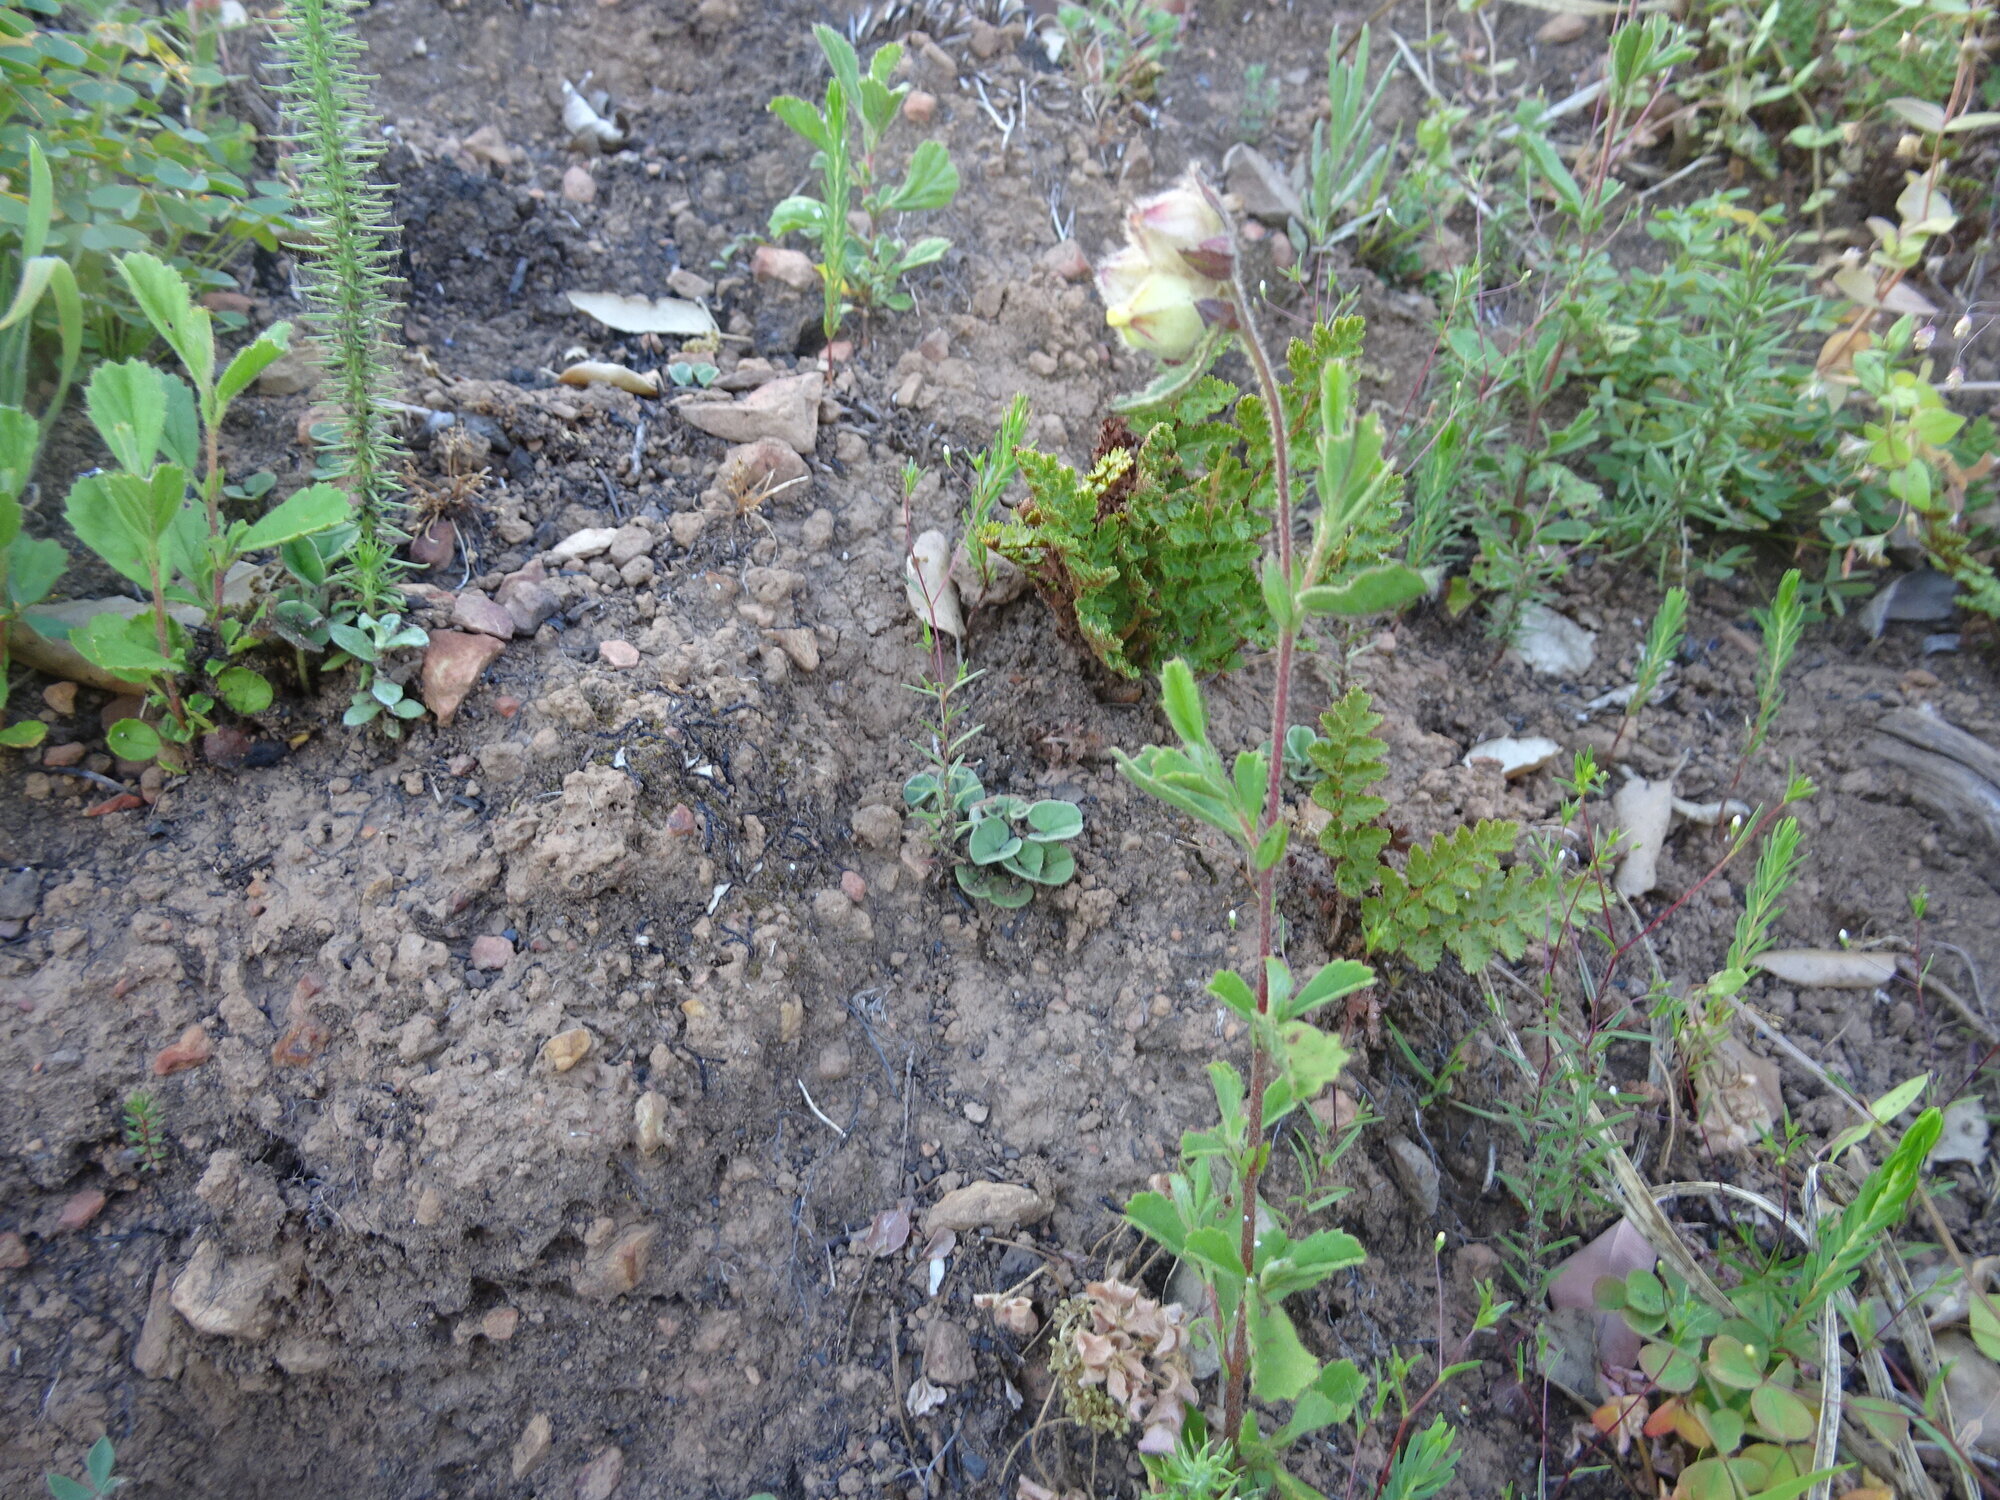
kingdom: Plantae
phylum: Tracheophyta
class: Magnoliopsida
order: Malvales
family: Malvaceae
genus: Hermannia
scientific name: Hermannia hyssopifolia
